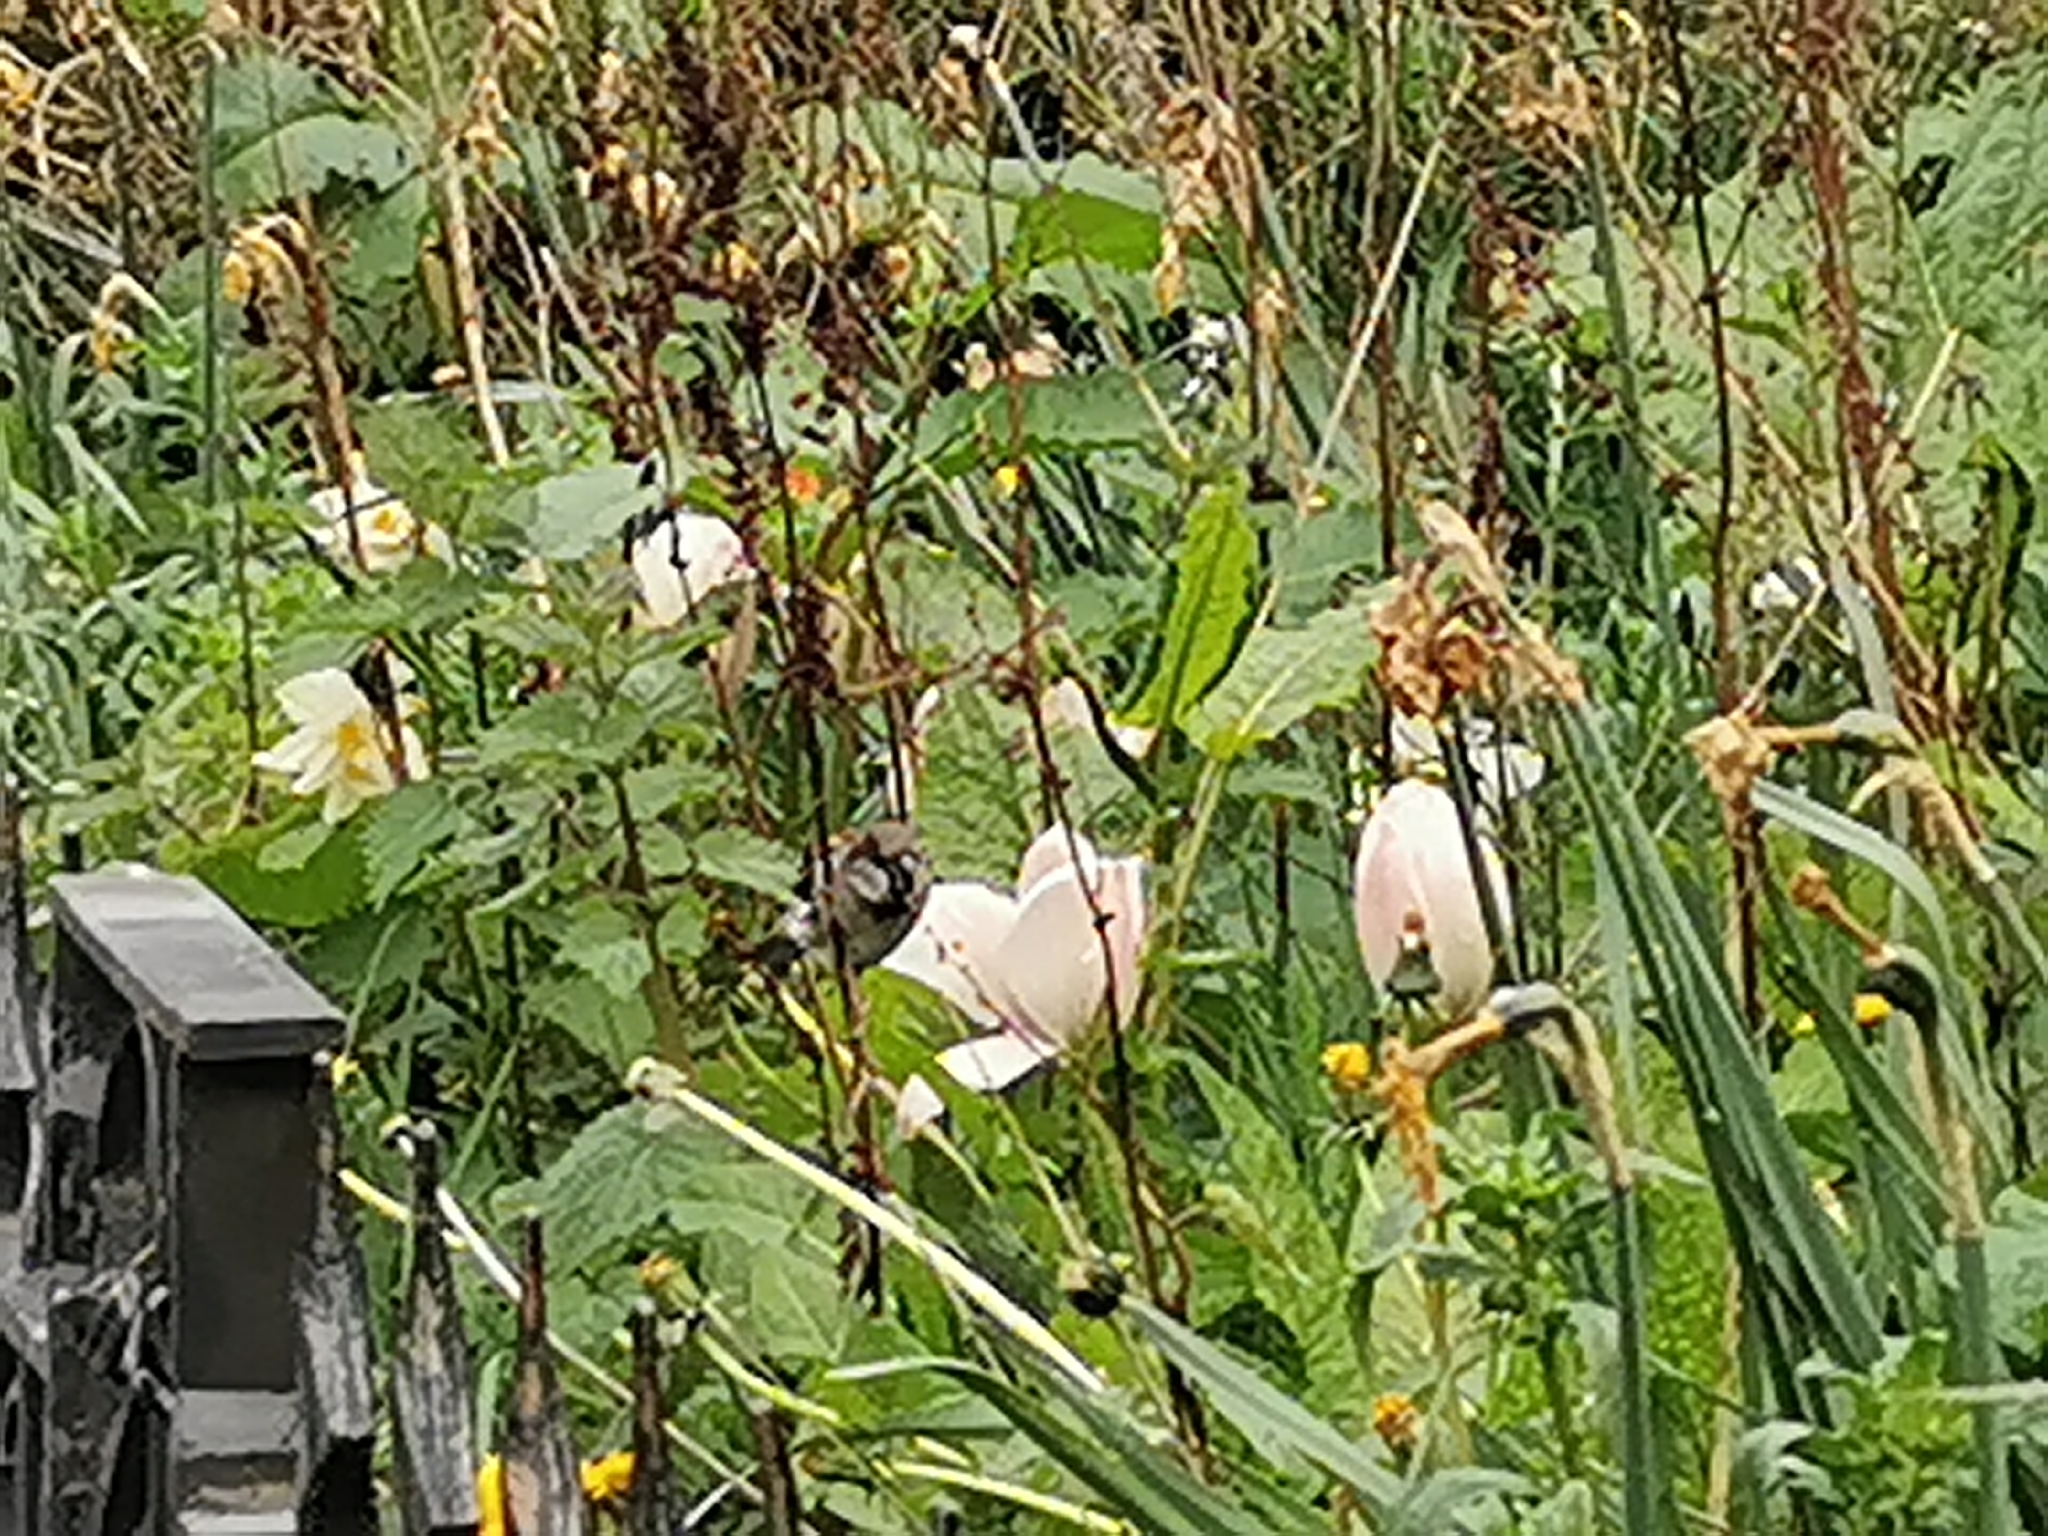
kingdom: Animalia
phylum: Chordata
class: Aves
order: Passeriformes
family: Passeridae
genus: Passer
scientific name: Passer domesticus
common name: House sparrow
